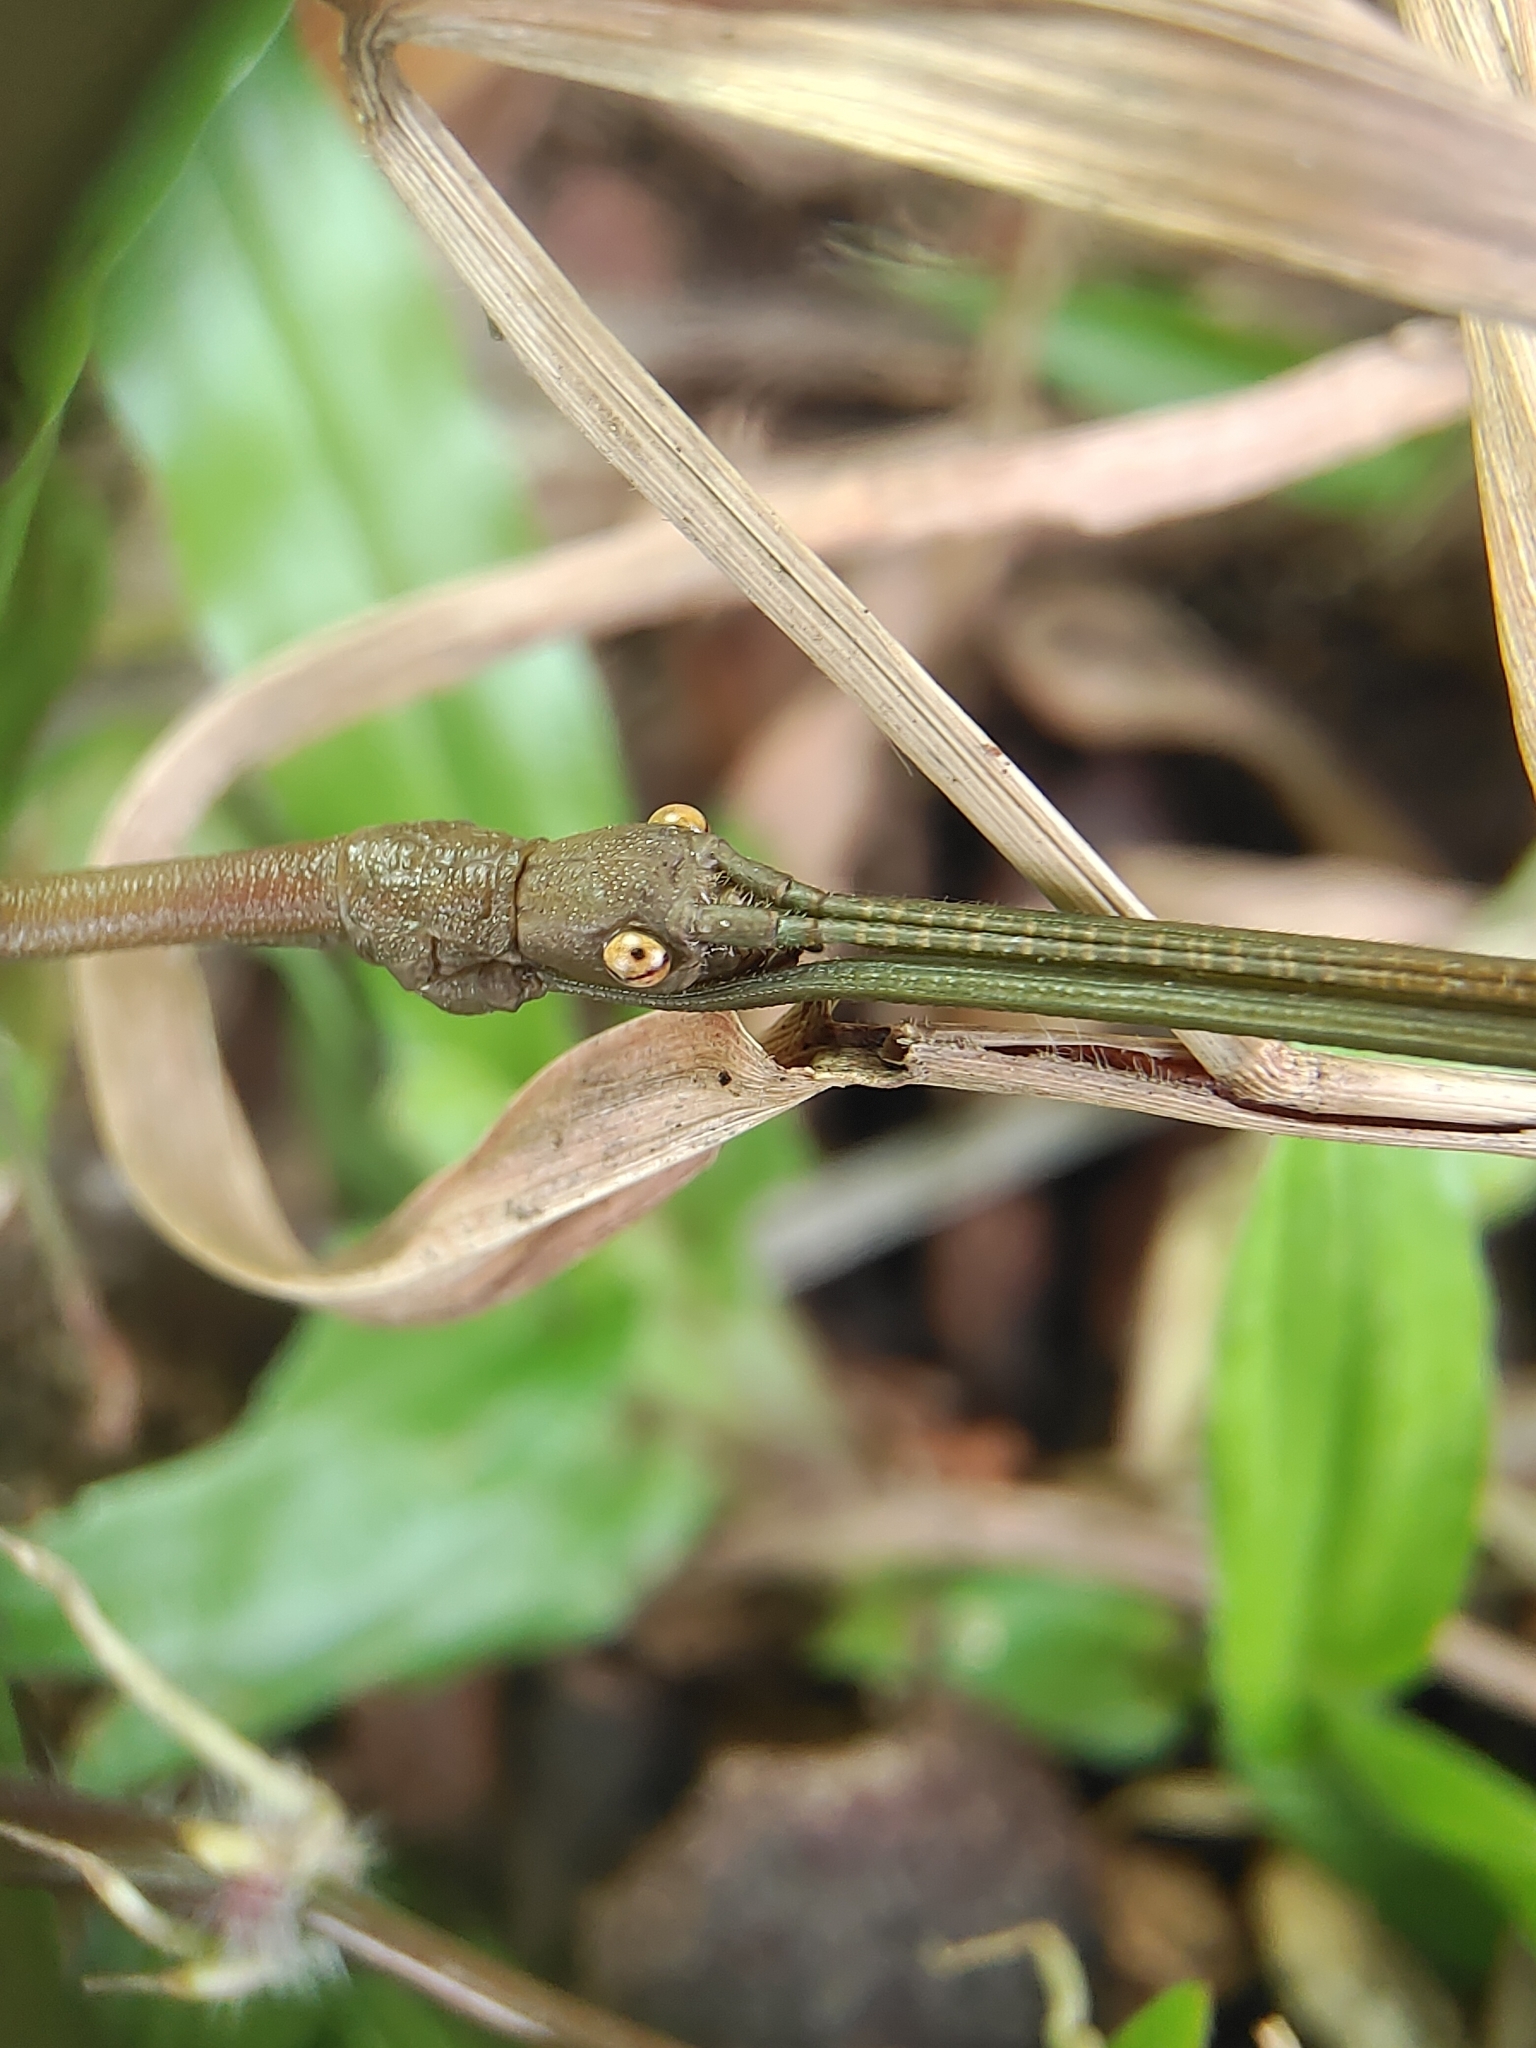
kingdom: Animalia
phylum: Arthropoda
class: Insecta
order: Phasmida
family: Lonchodidae
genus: Lonchodes
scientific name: Lonchodes brevipes
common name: Gray's malayan stick insect
